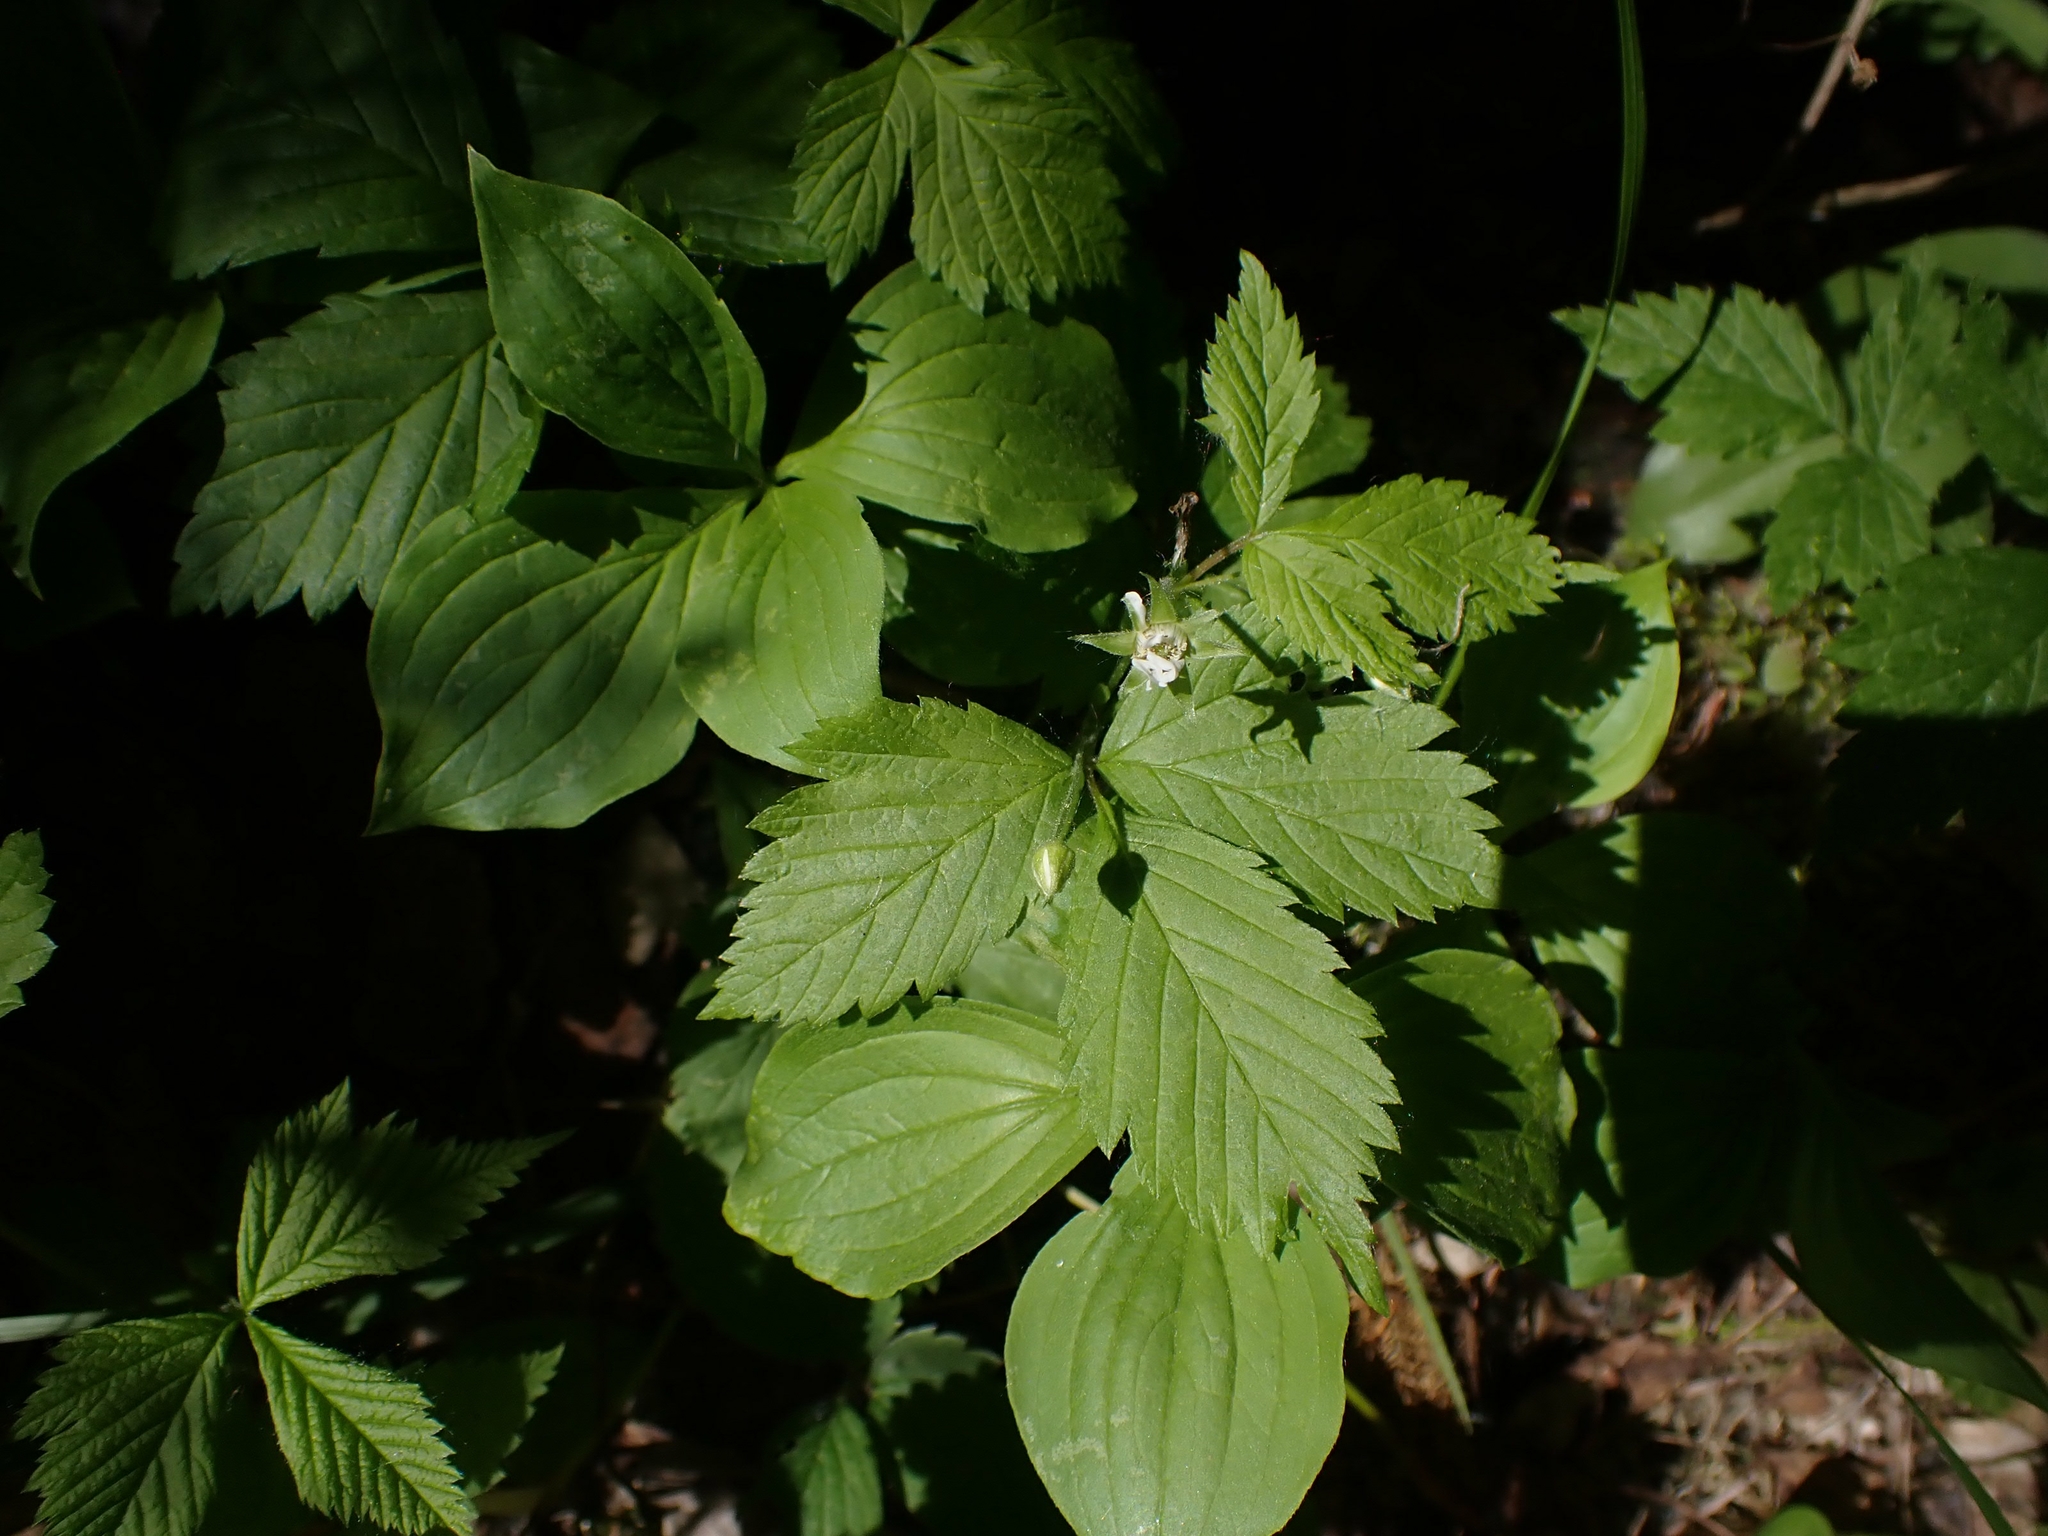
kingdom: Plantae
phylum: Tracheophyta
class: Magnoliopsida
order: Rosales
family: Rosaceae
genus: Rubus
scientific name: Rubus pubescens
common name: Dwarf raspberry
